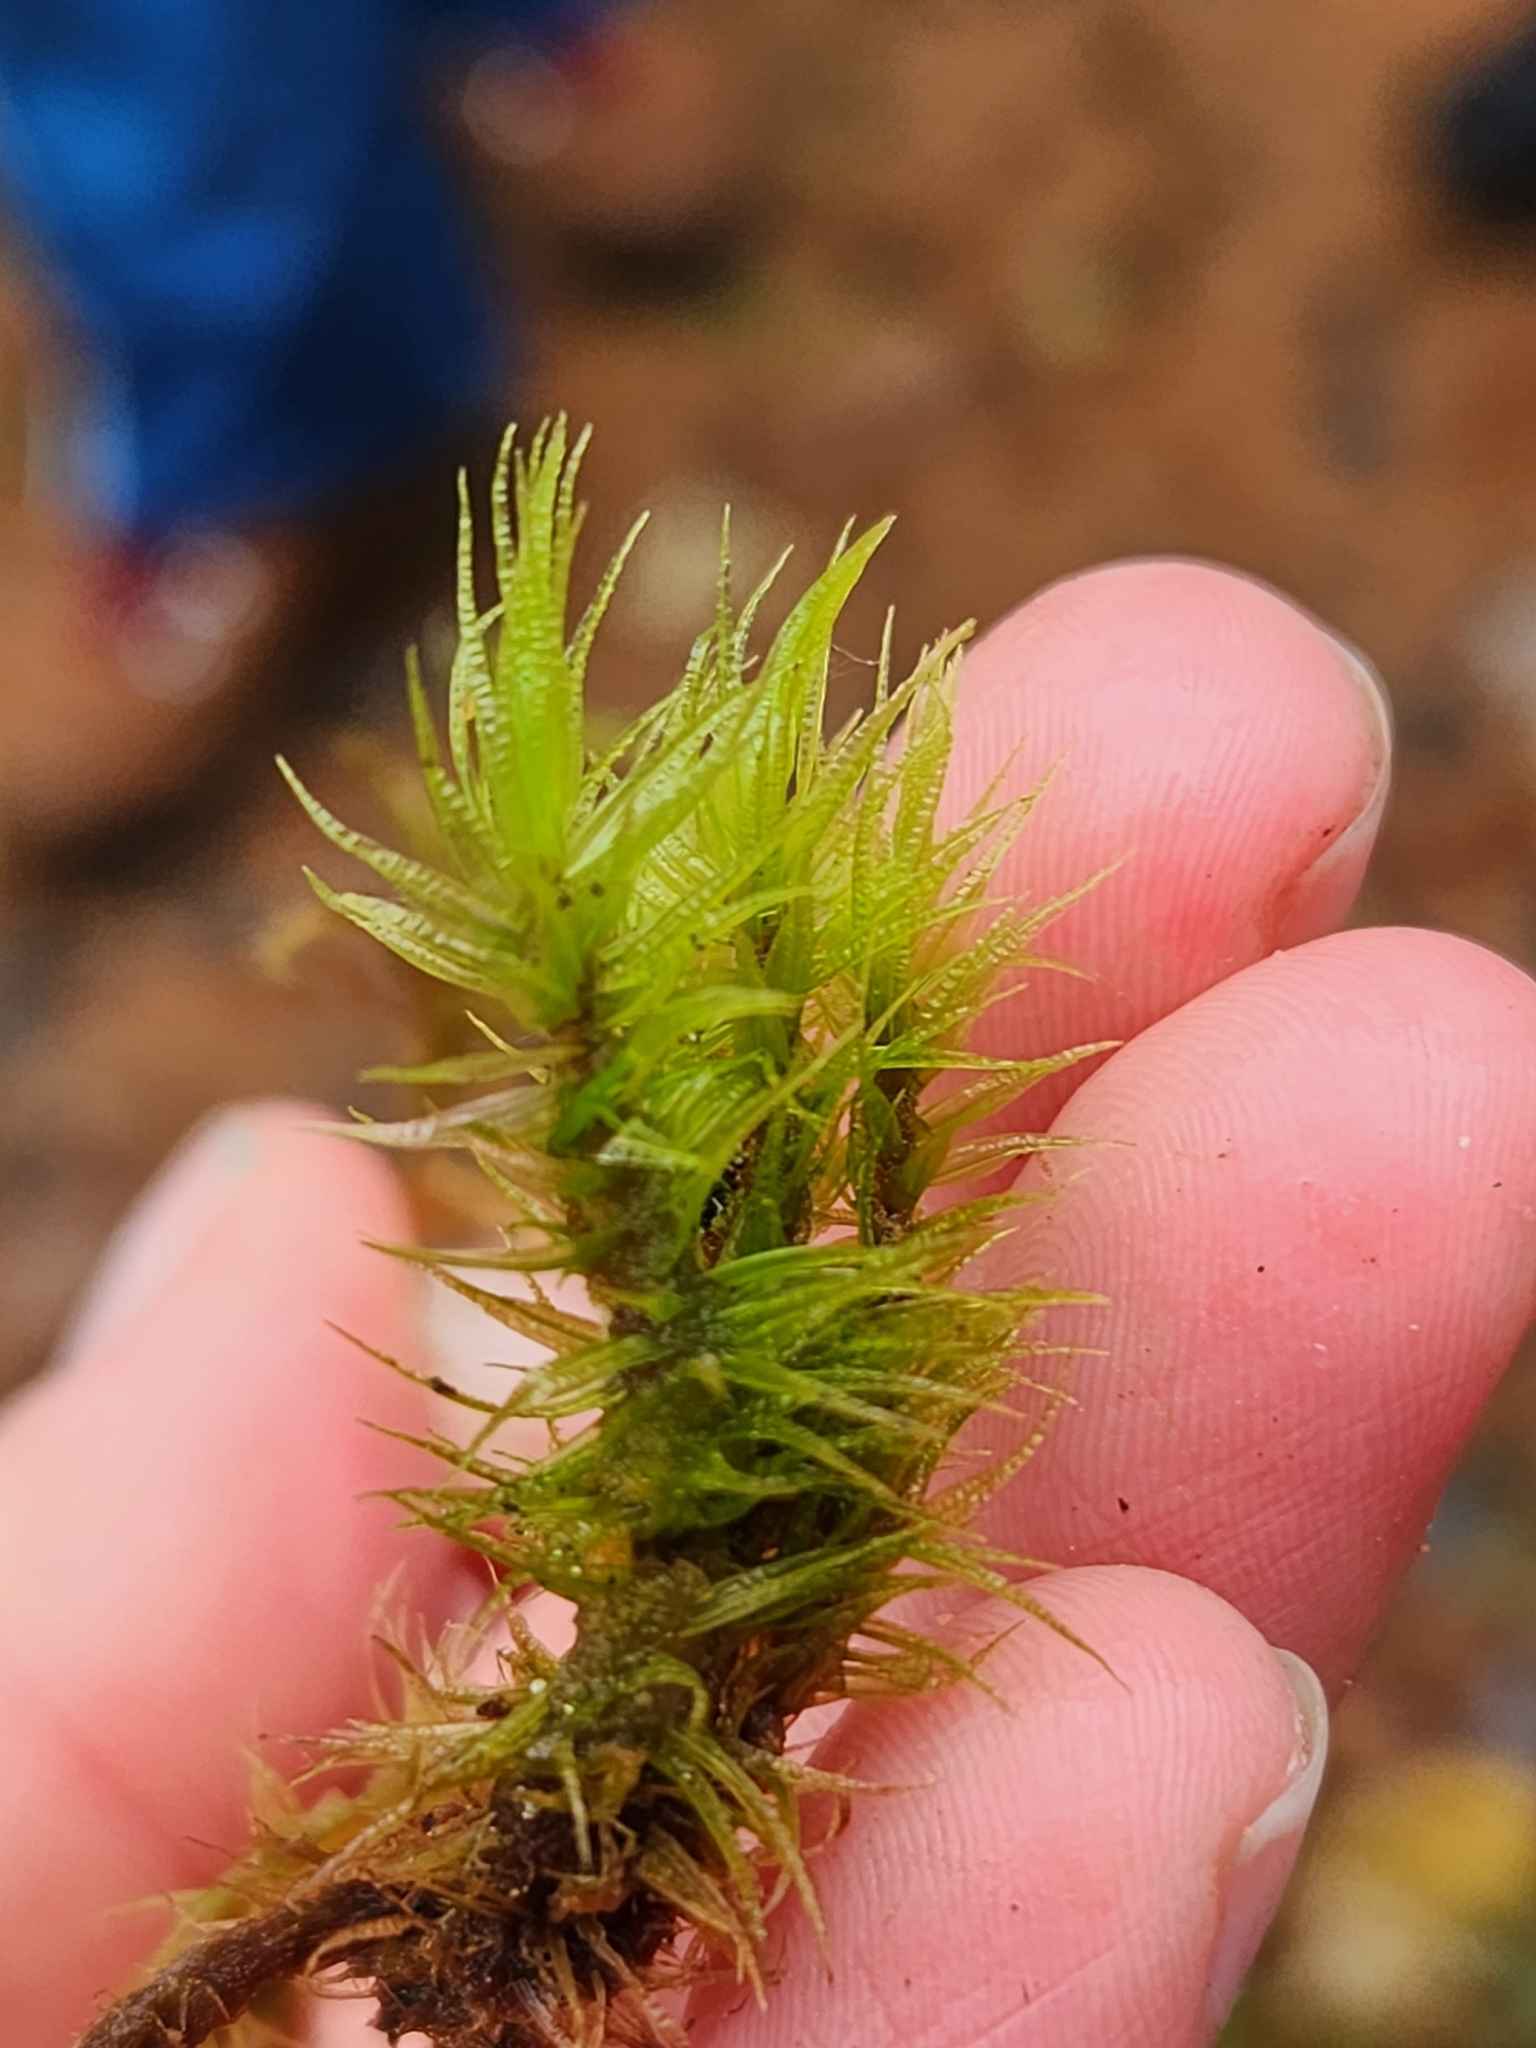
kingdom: Plantae
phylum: Bryophyta
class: Bryopsida
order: Dicranales
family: Dicranaceae
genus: Dicranum
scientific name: Dicranum polysetum
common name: Rugose fork-moss
